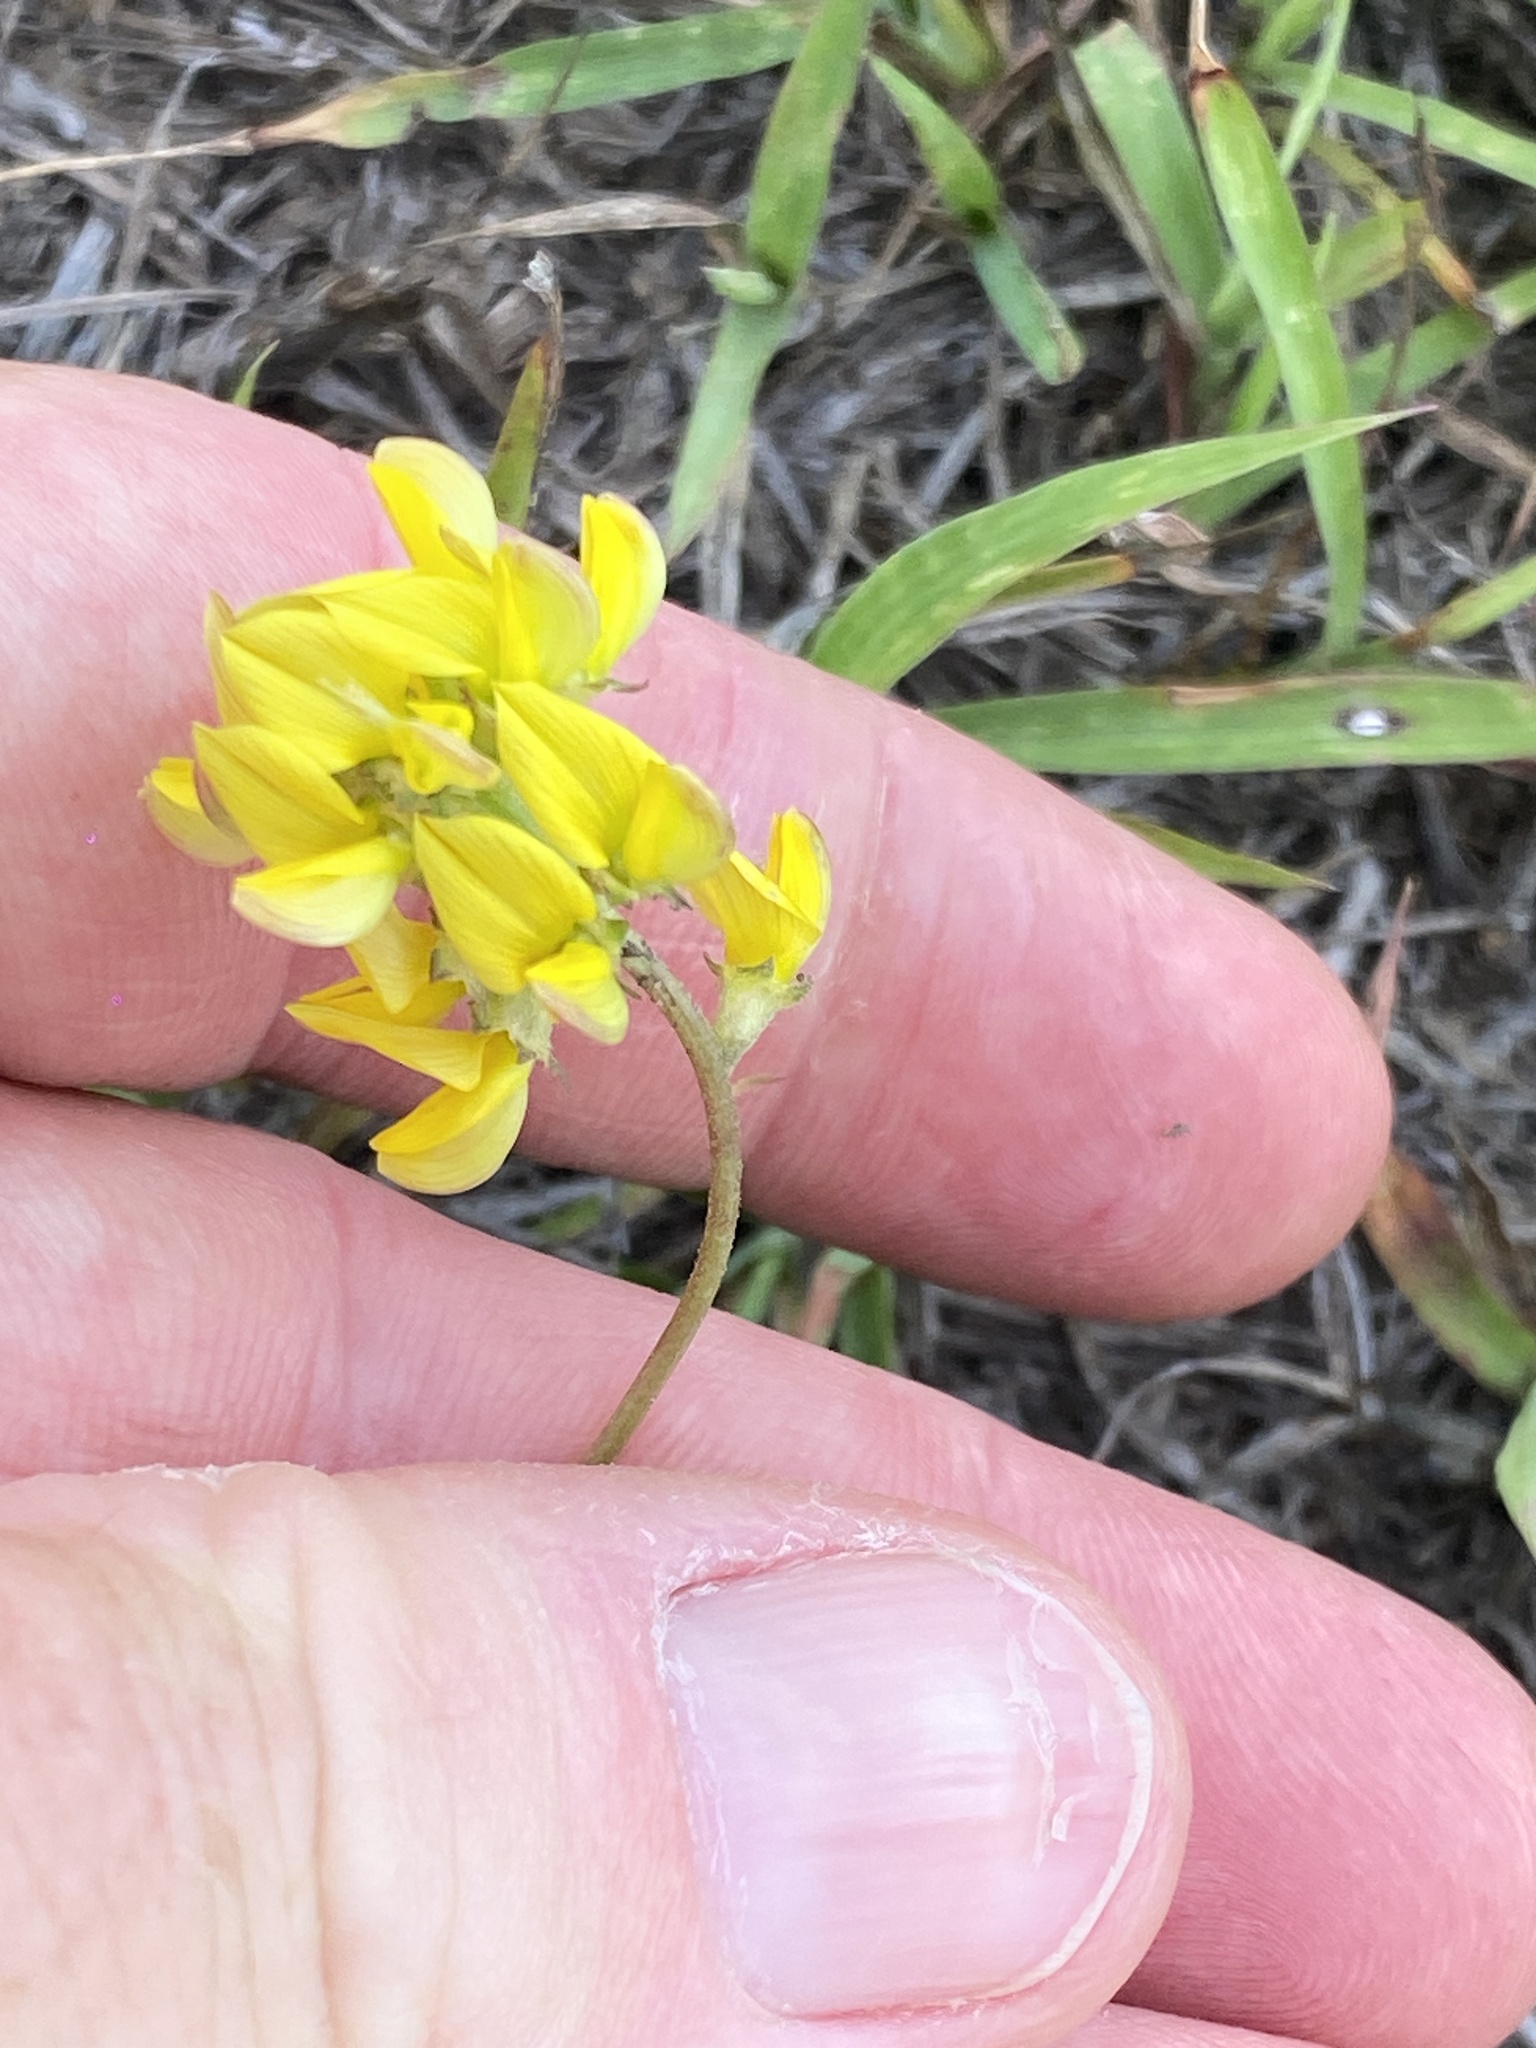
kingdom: Plantae
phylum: Tracheophyta
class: Magnoliopsida
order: Fabales
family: Fabaceae
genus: Listia
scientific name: Listia bainesii
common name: Lotononis
